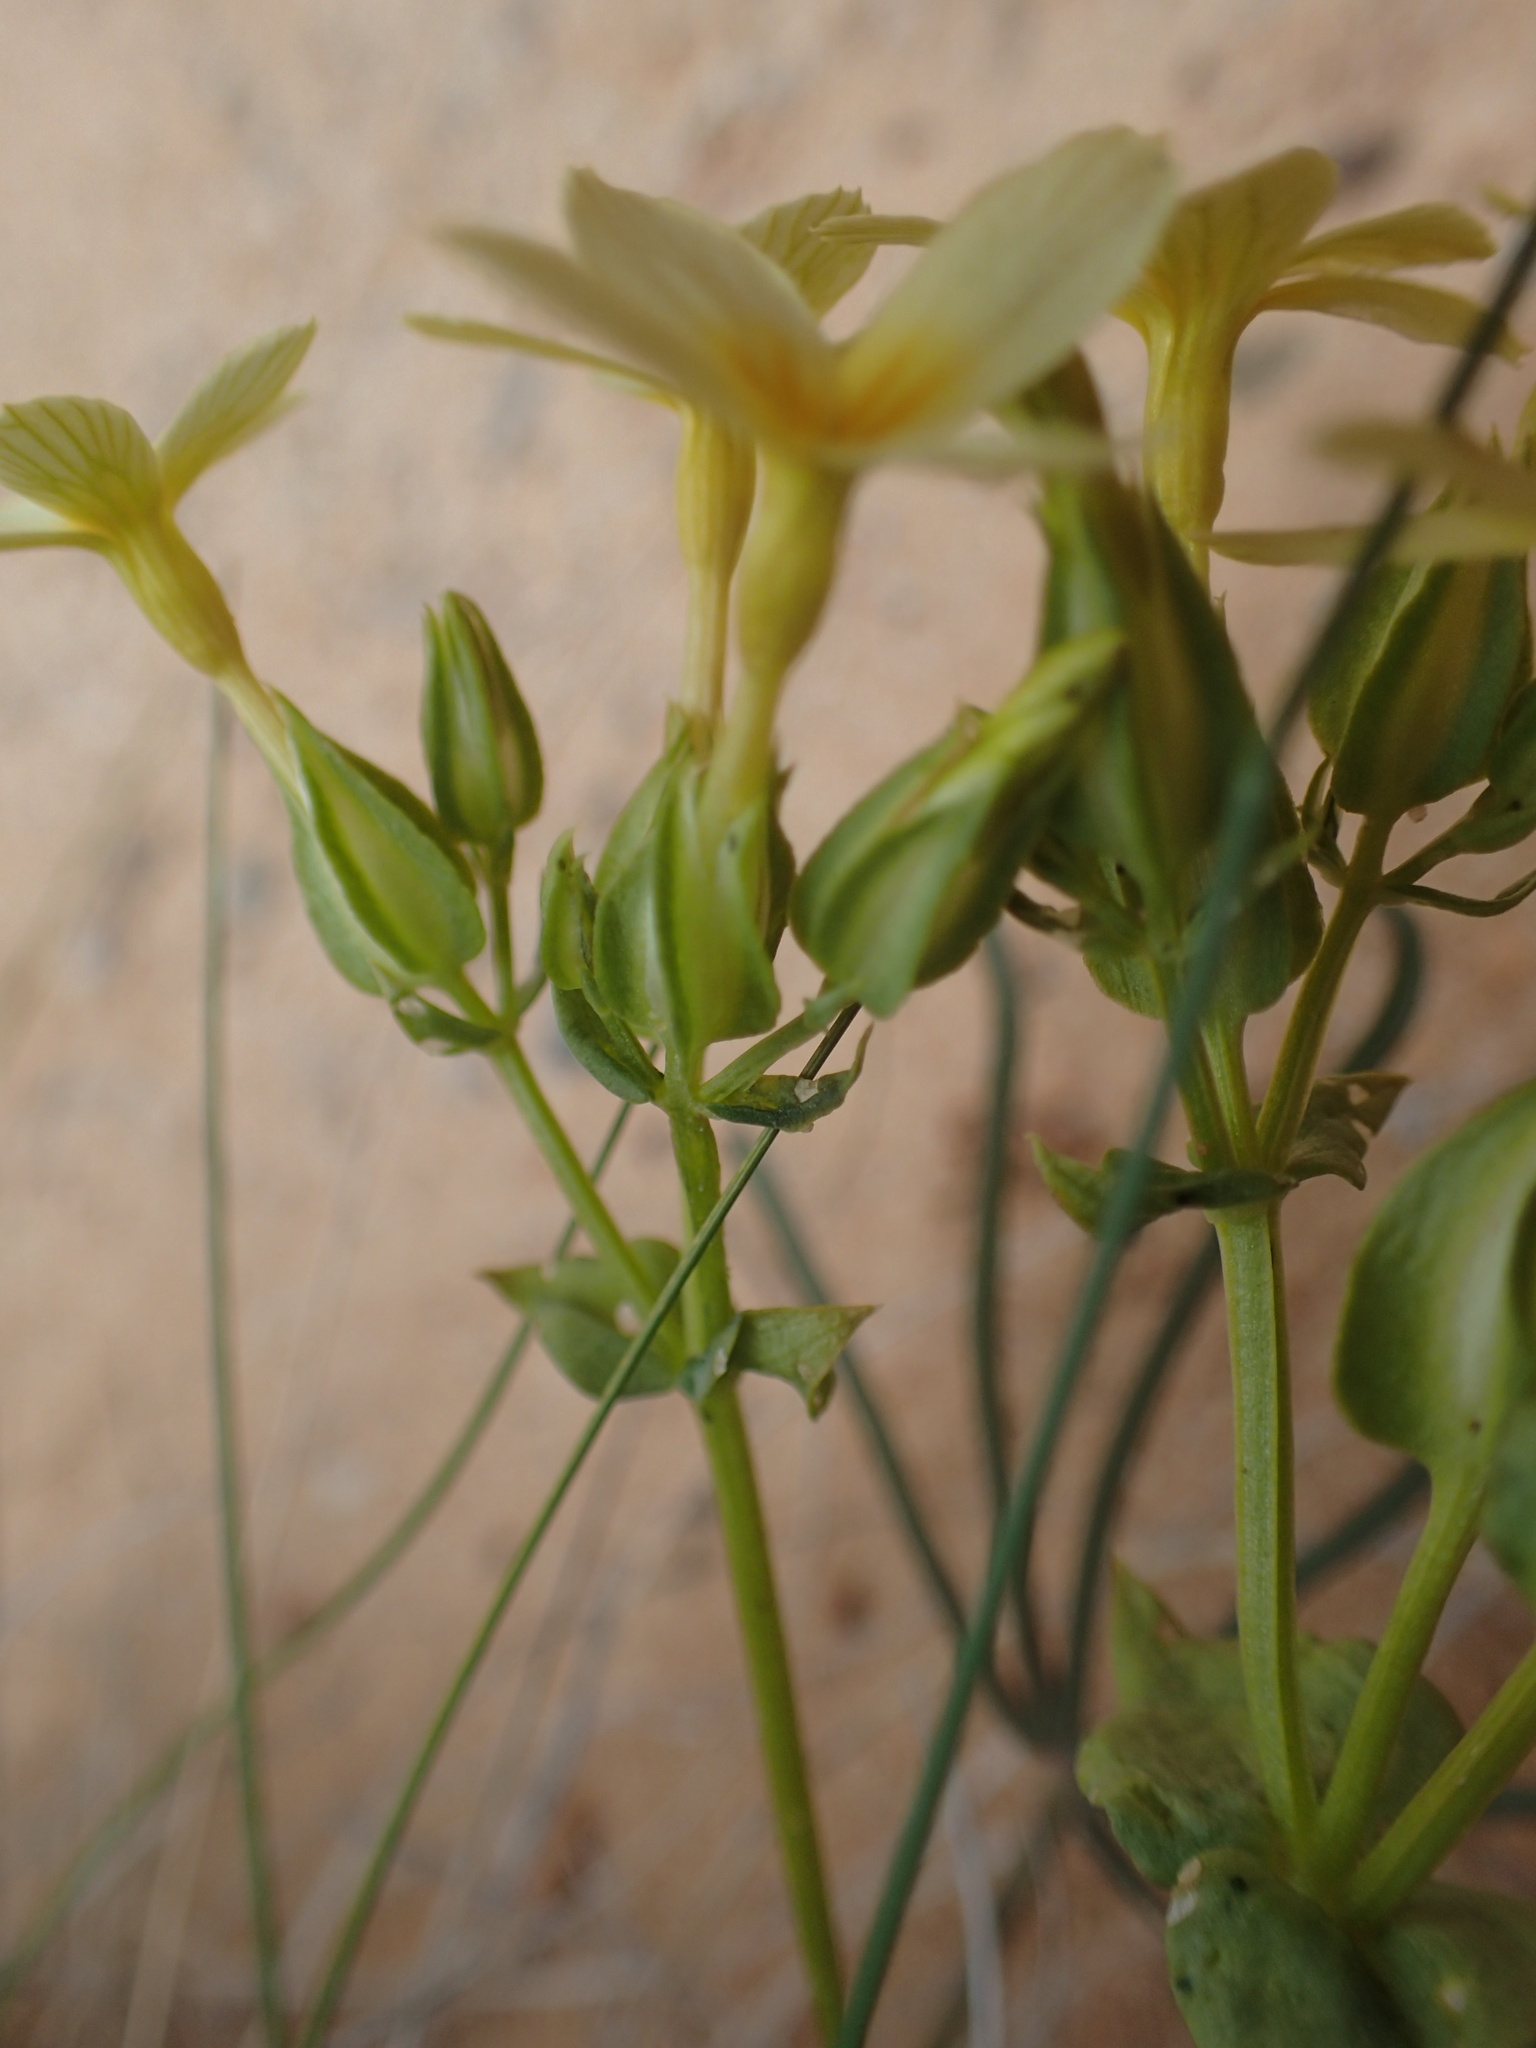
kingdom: Plantae
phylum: Tracheophyta
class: Magnoliopsida
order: Gentianales
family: Gentianaceae
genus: Sebaea
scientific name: Sebaea exacoides
